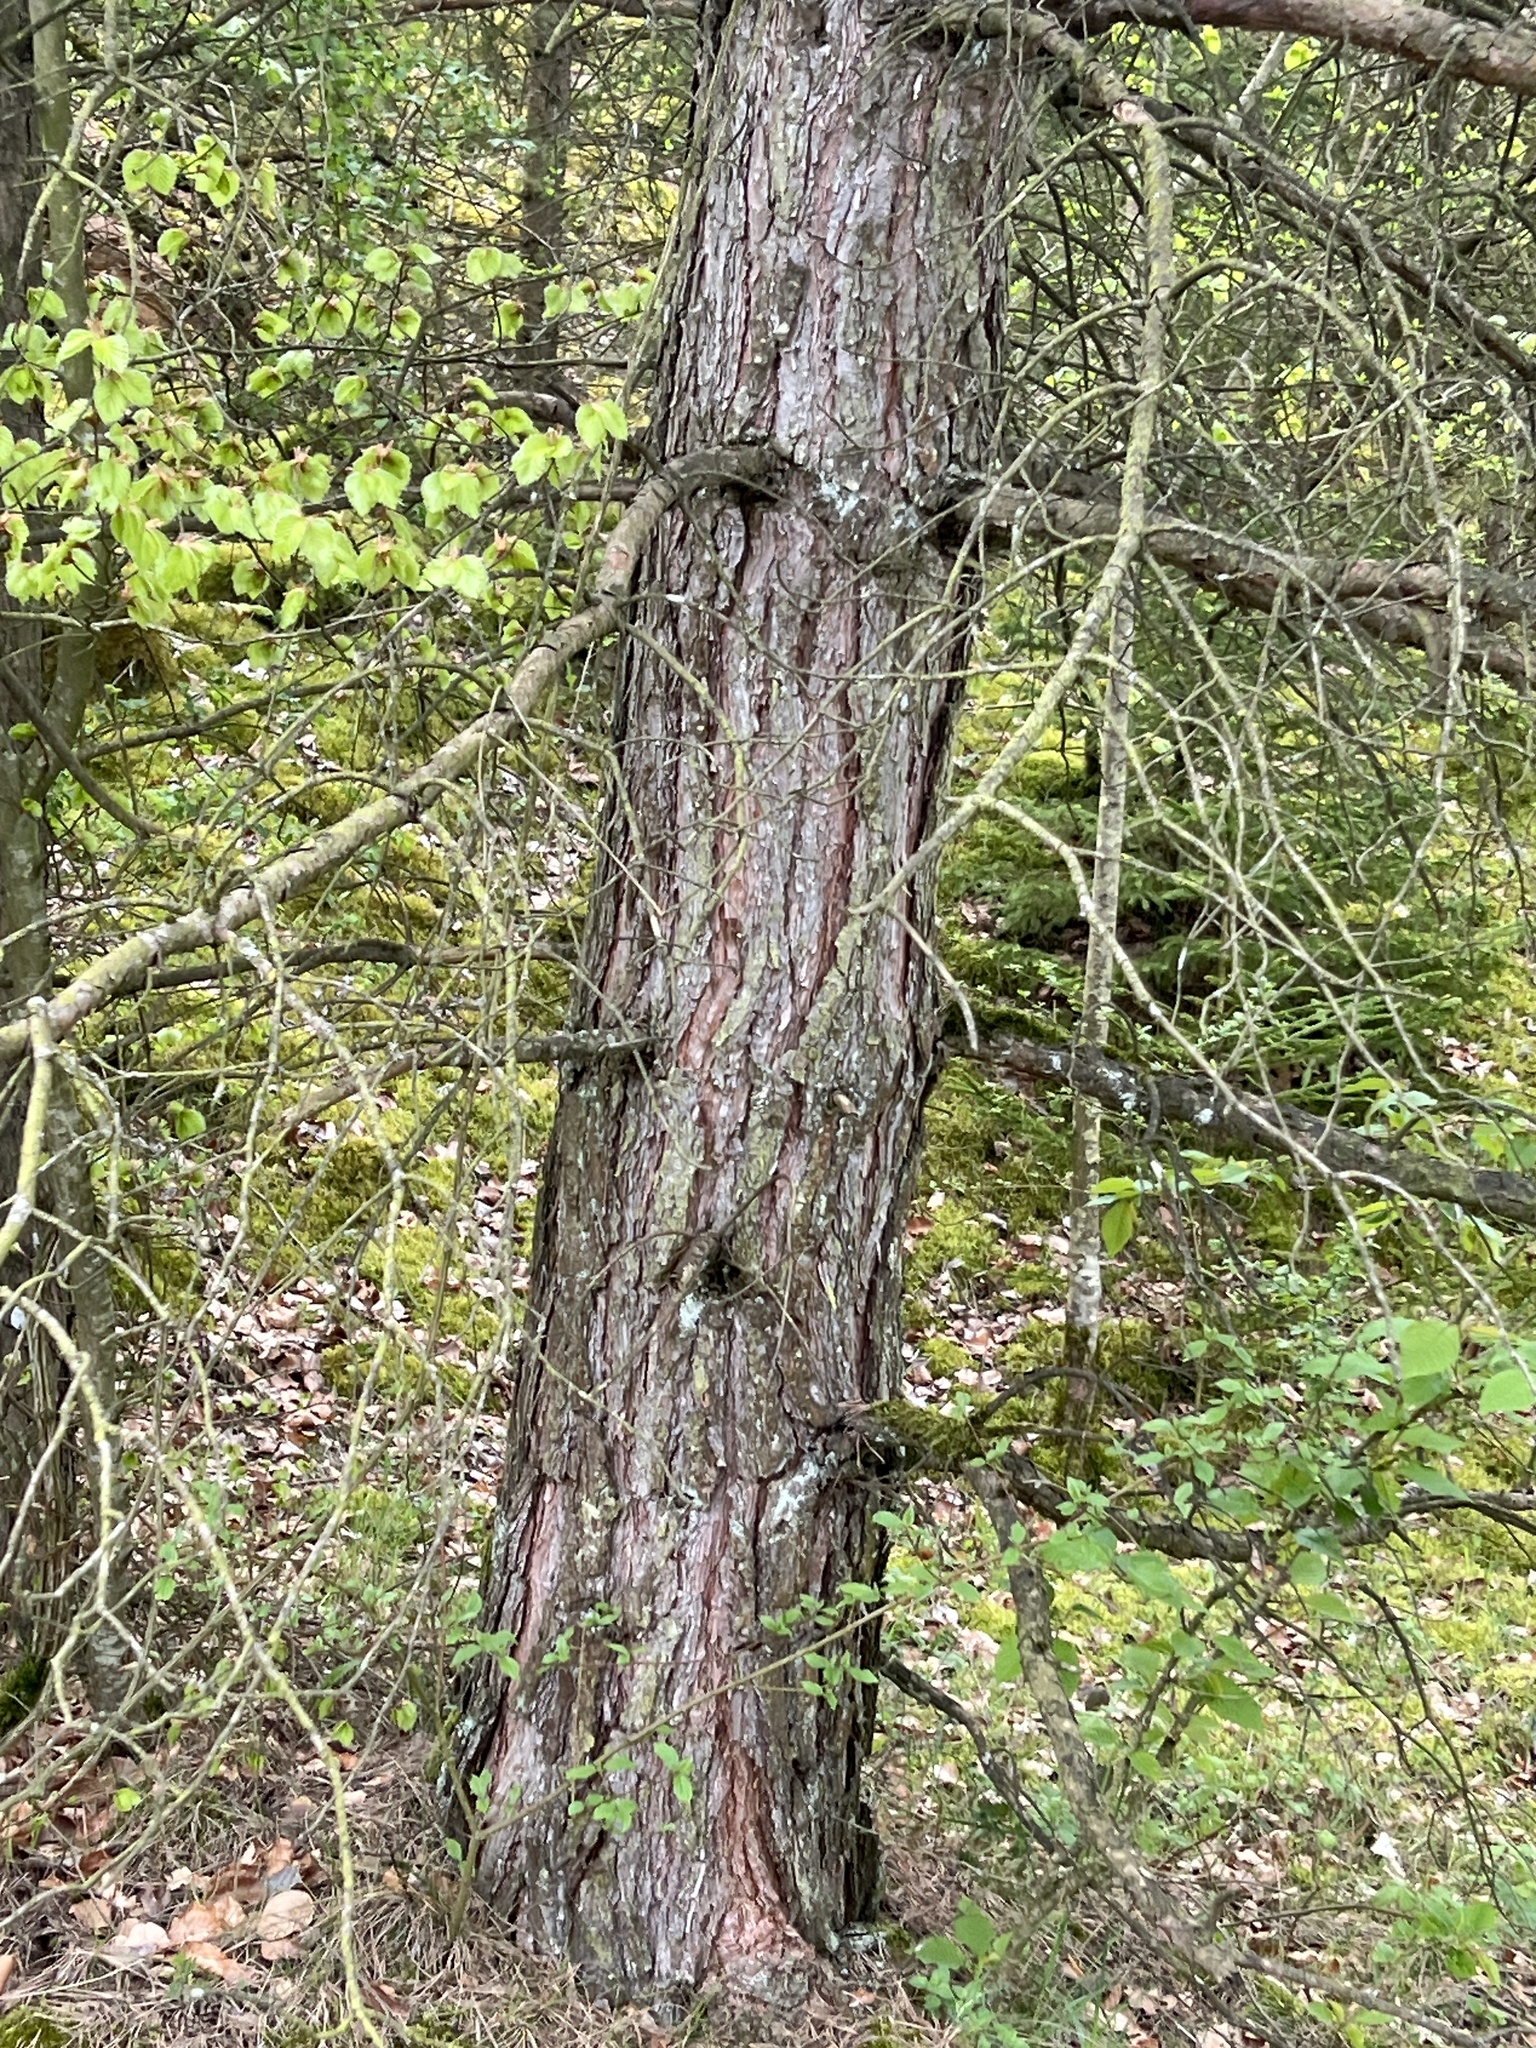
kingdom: Plantae
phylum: Tracheophyta
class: Pinopsida
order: Pinales
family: Pinaceae
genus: Pinus
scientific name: Pinus sylvestris
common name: Scots pine
